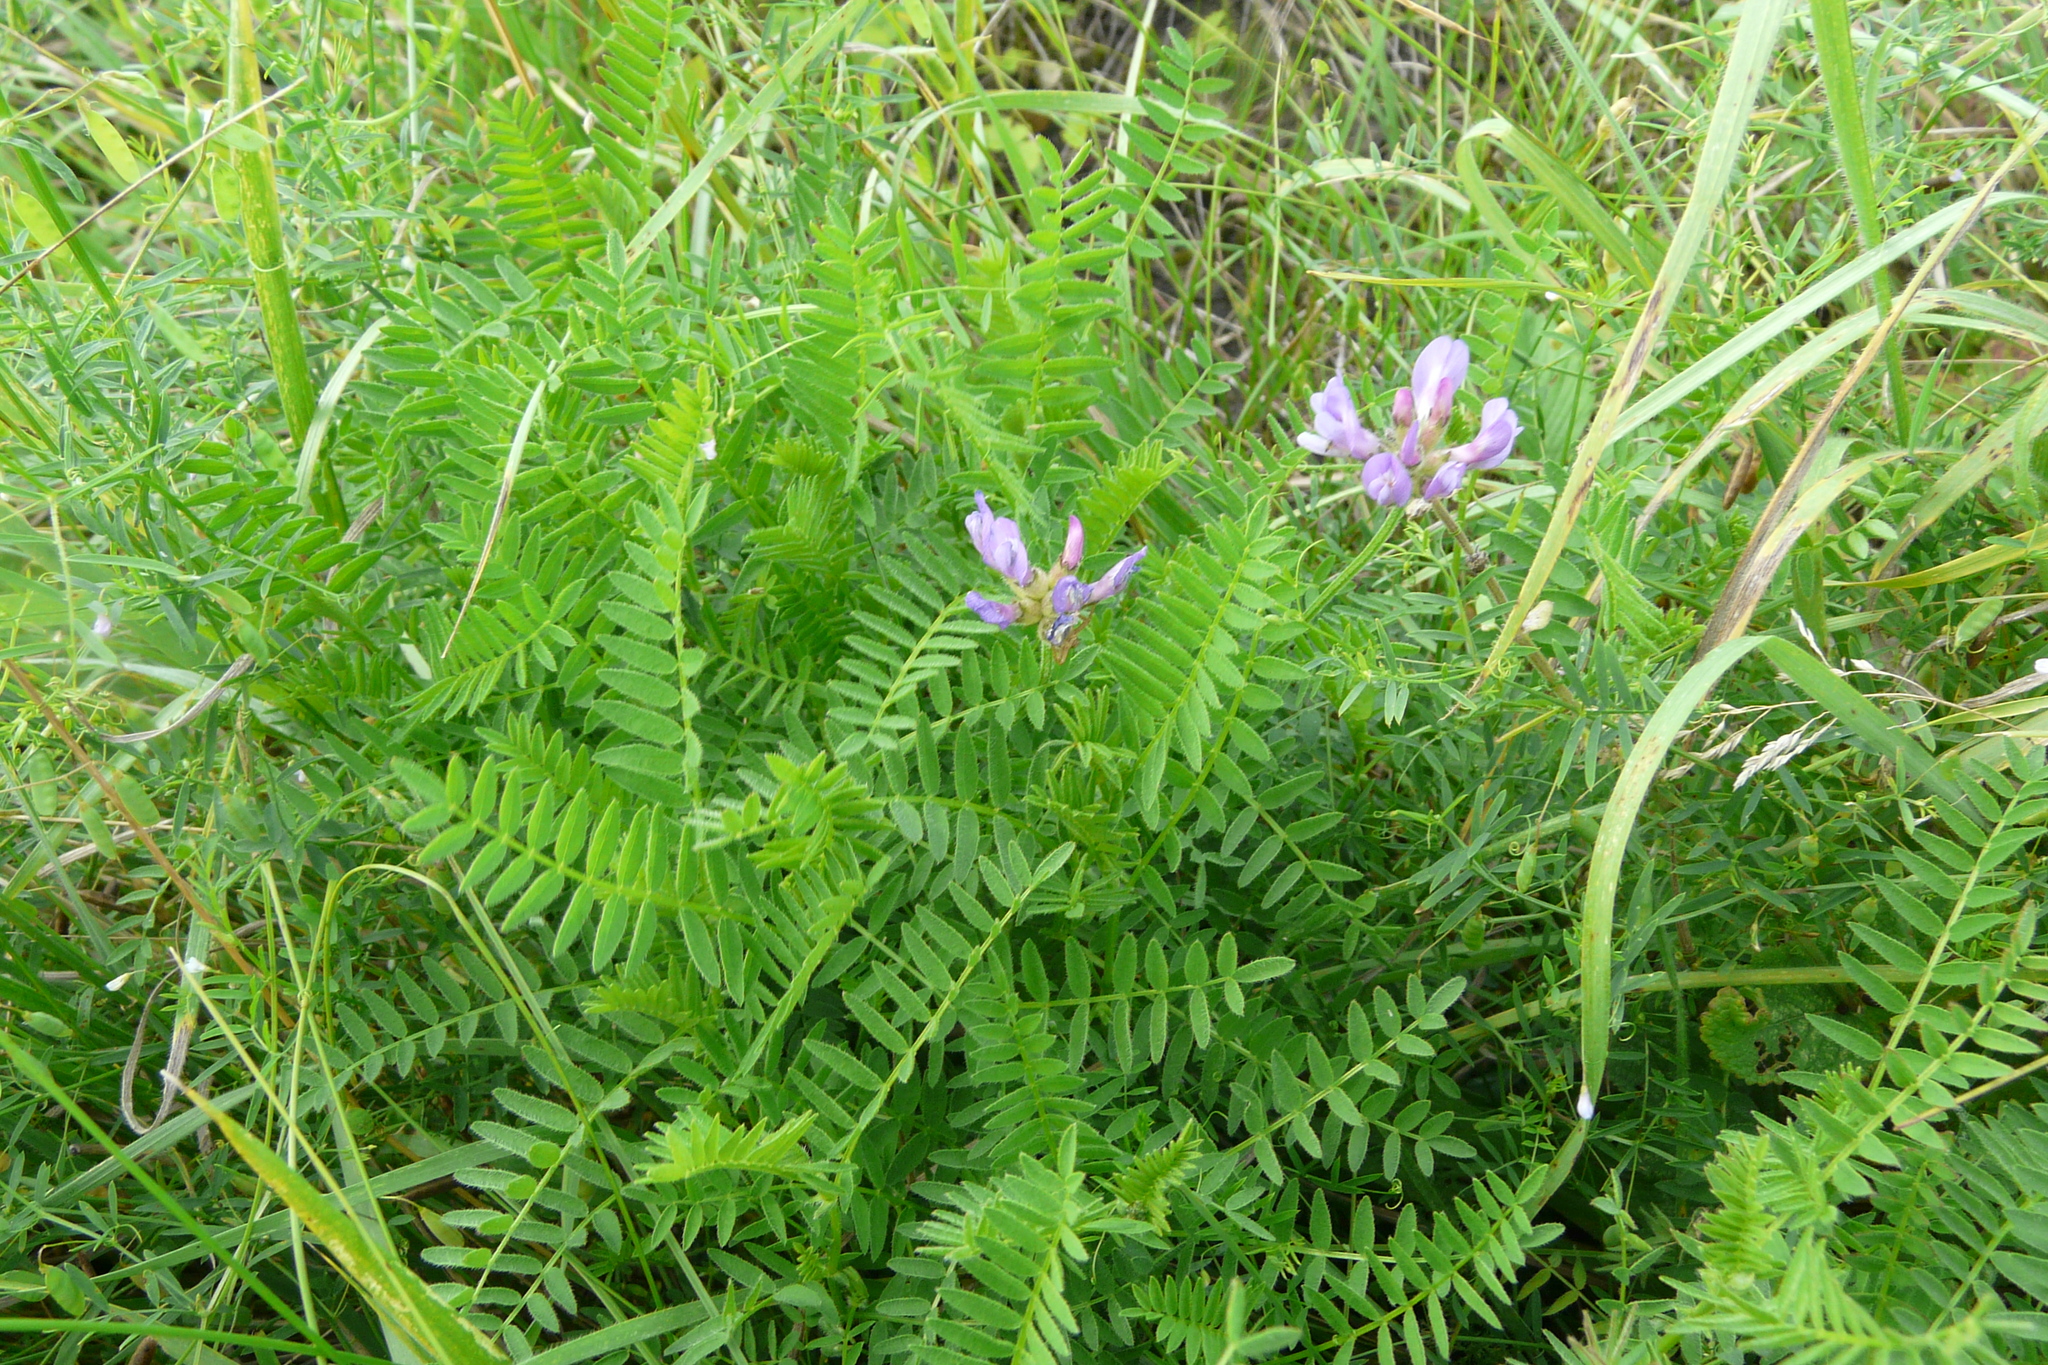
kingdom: Plantae
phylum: Tracheophyta
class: Magnoliopsida
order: Fabales
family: Fabaceae
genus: Astragalus
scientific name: Astragalus danicus
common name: Purple milk-vetch
